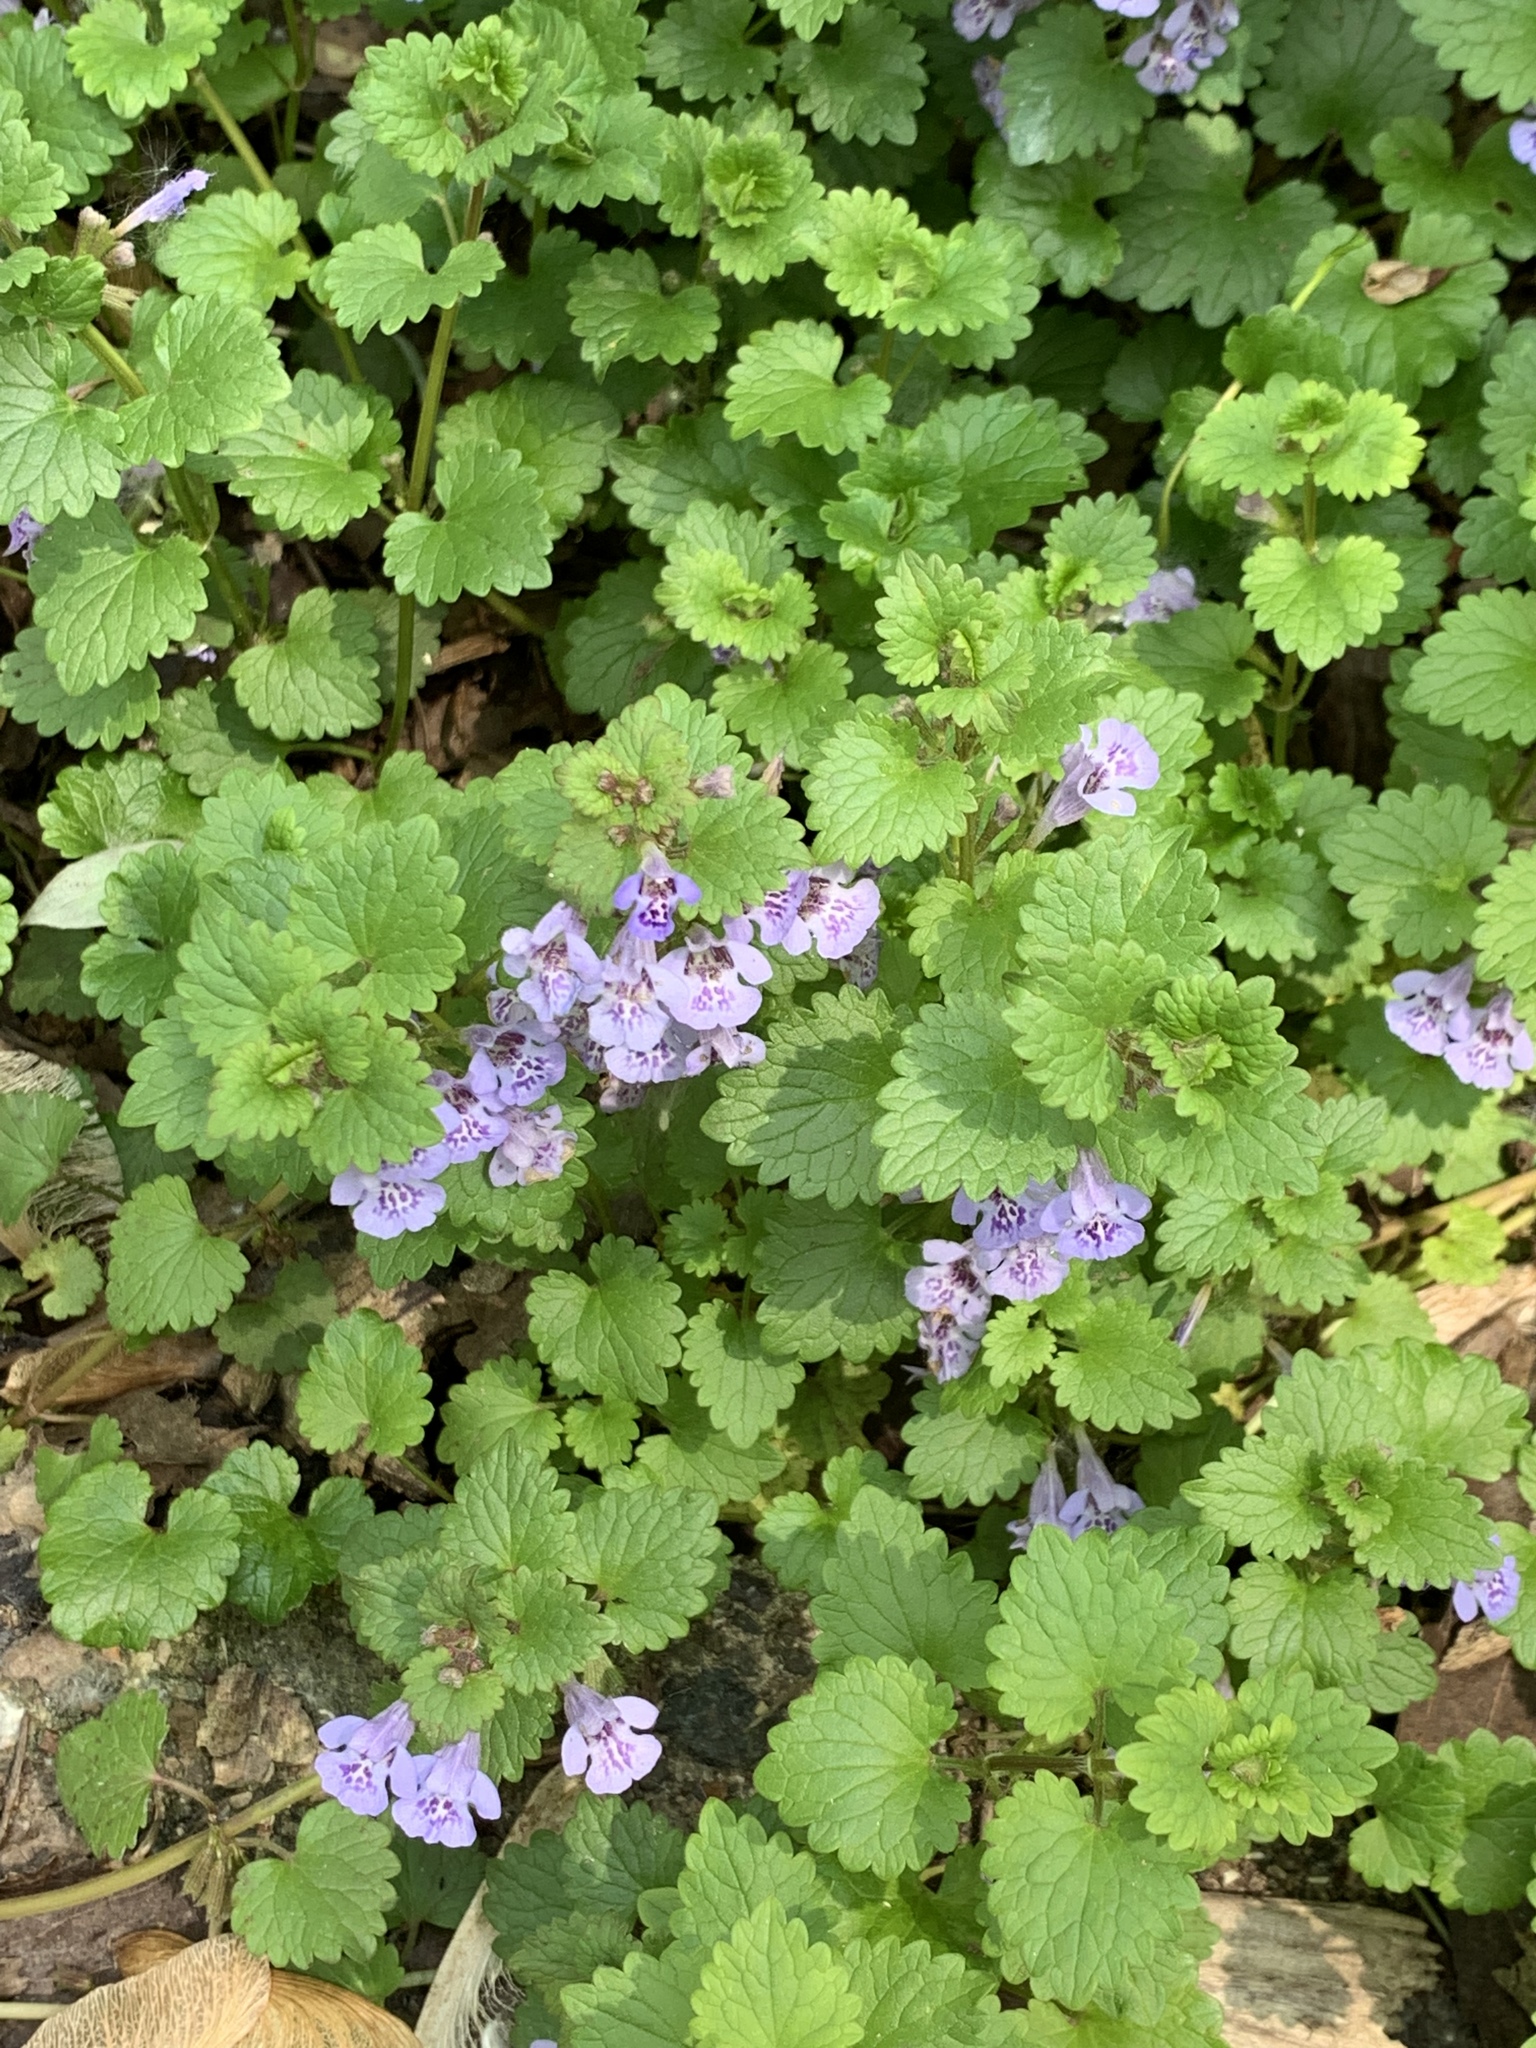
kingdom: Plantae
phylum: Tracheophyta
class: Magnoliopsida
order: Lamiales
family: Lamiaceae
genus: Glechoma
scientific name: Glechoma hederacea
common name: Ground ivy
